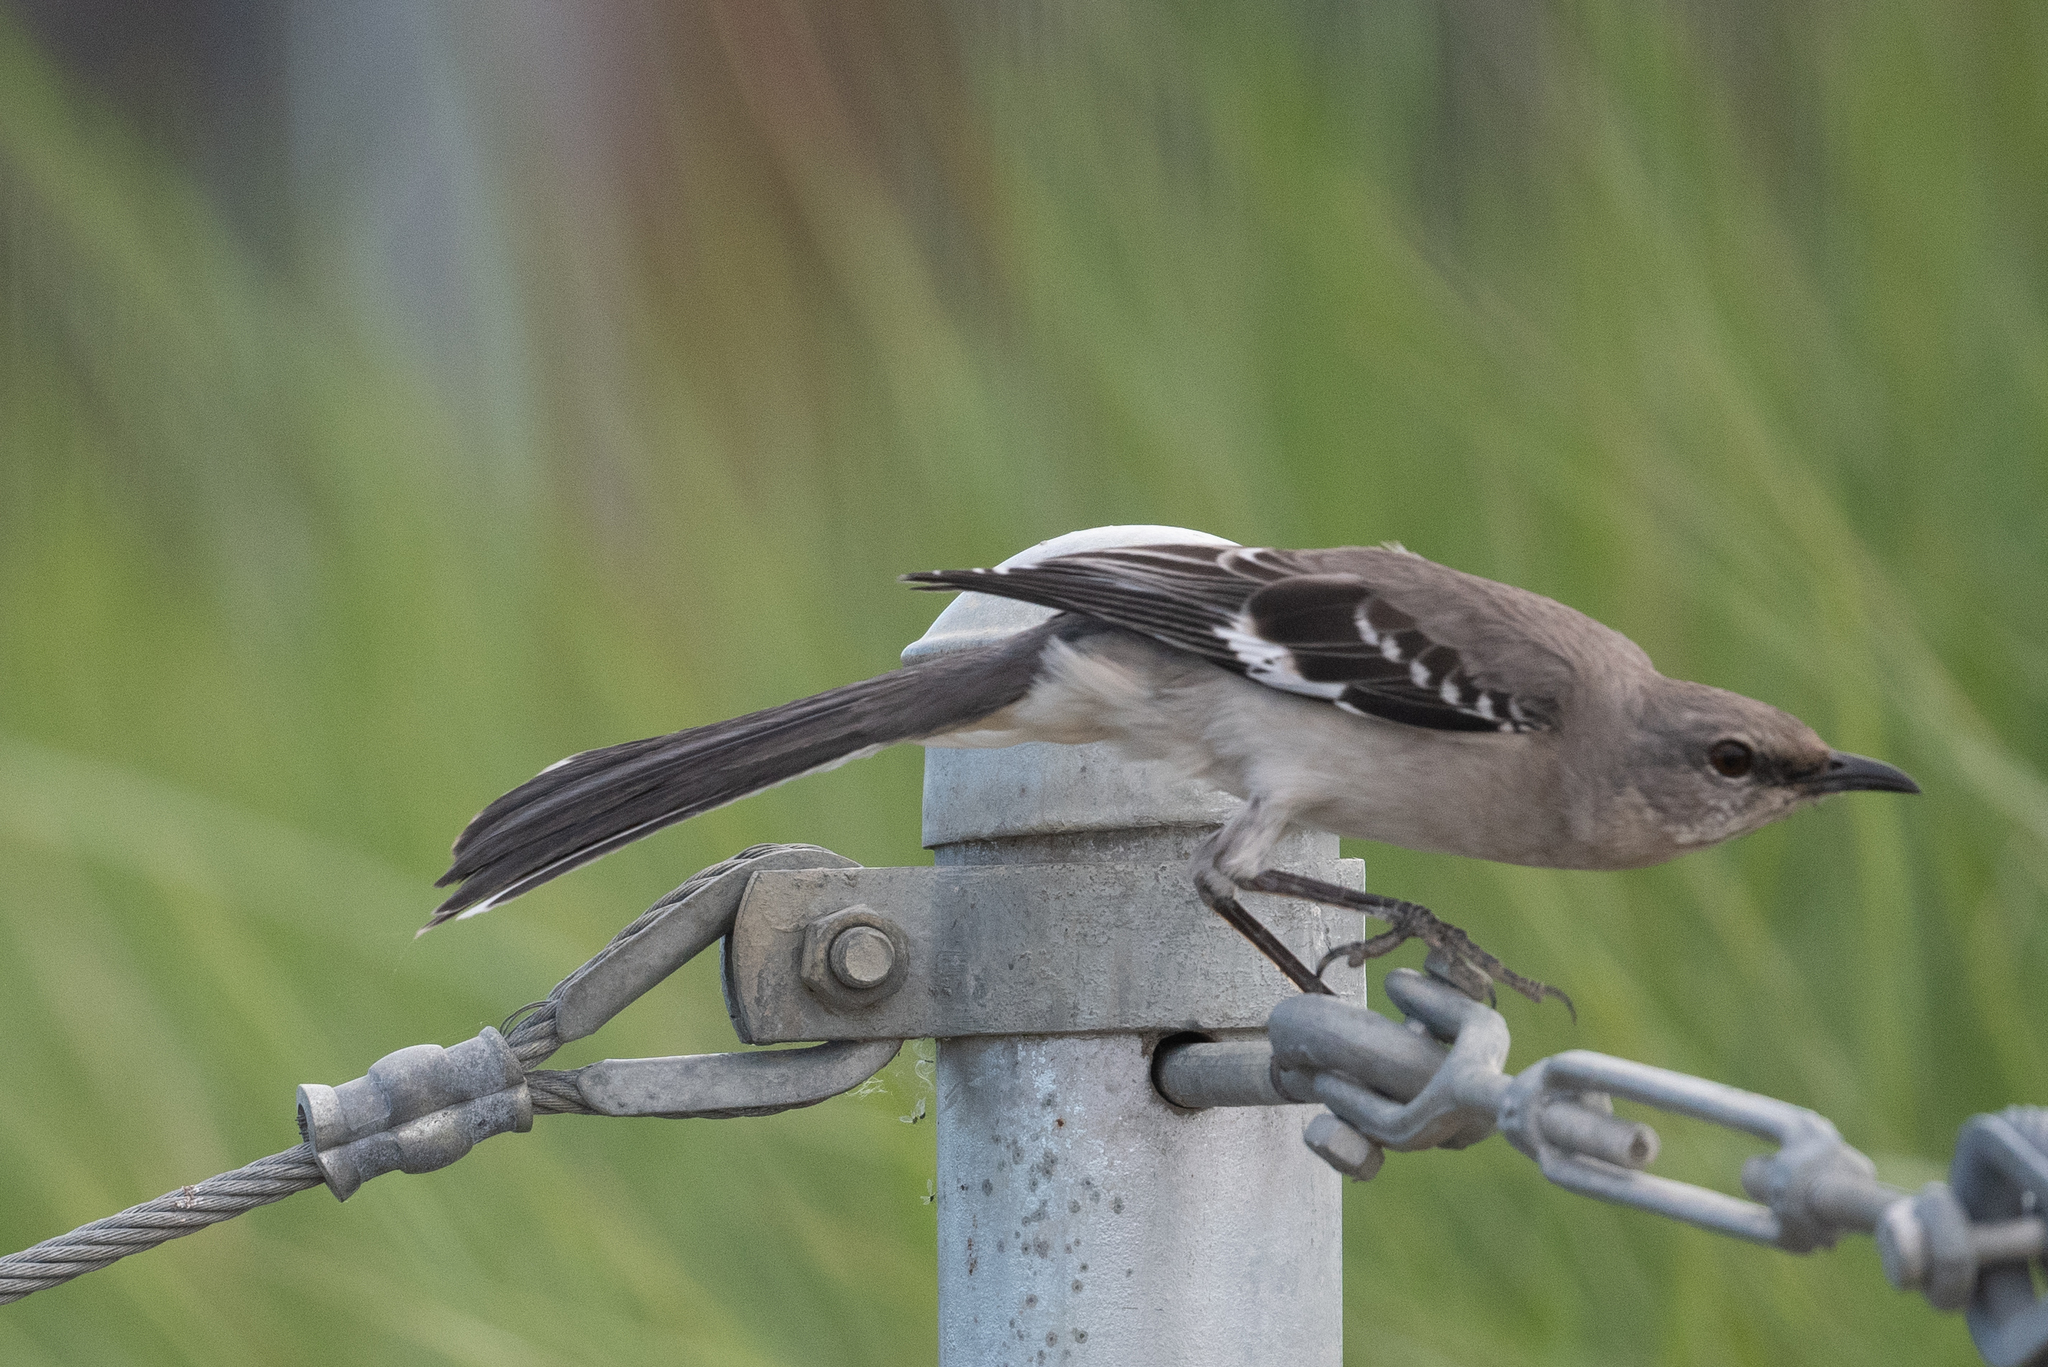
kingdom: Animalia
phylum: Chordata
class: Aves
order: Passeriformes
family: Mimidae
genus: Mimus
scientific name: Mimus polyglottos
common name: Northern mockingbird
